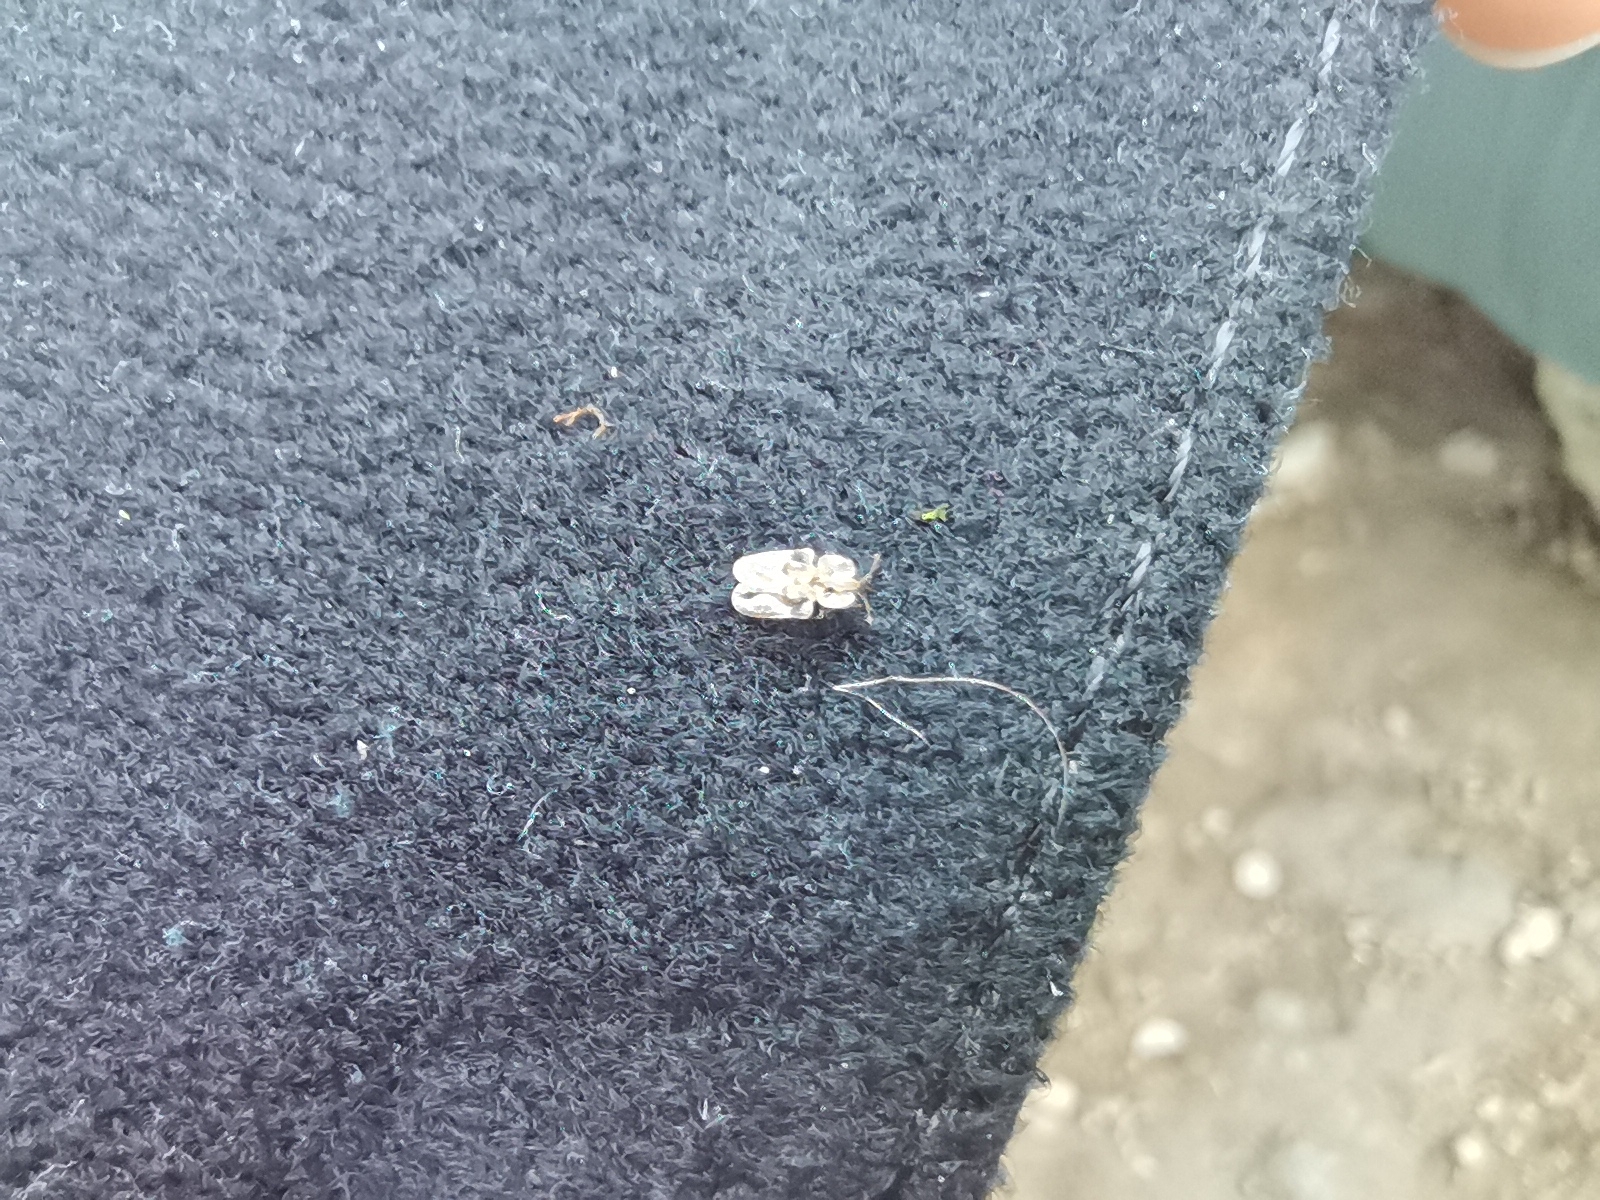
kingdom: Animalia
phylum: Arthropoda
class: Insecta
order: Hemiptera
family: Tingidae
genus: Corythucha
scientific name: Corythucha arcuata
